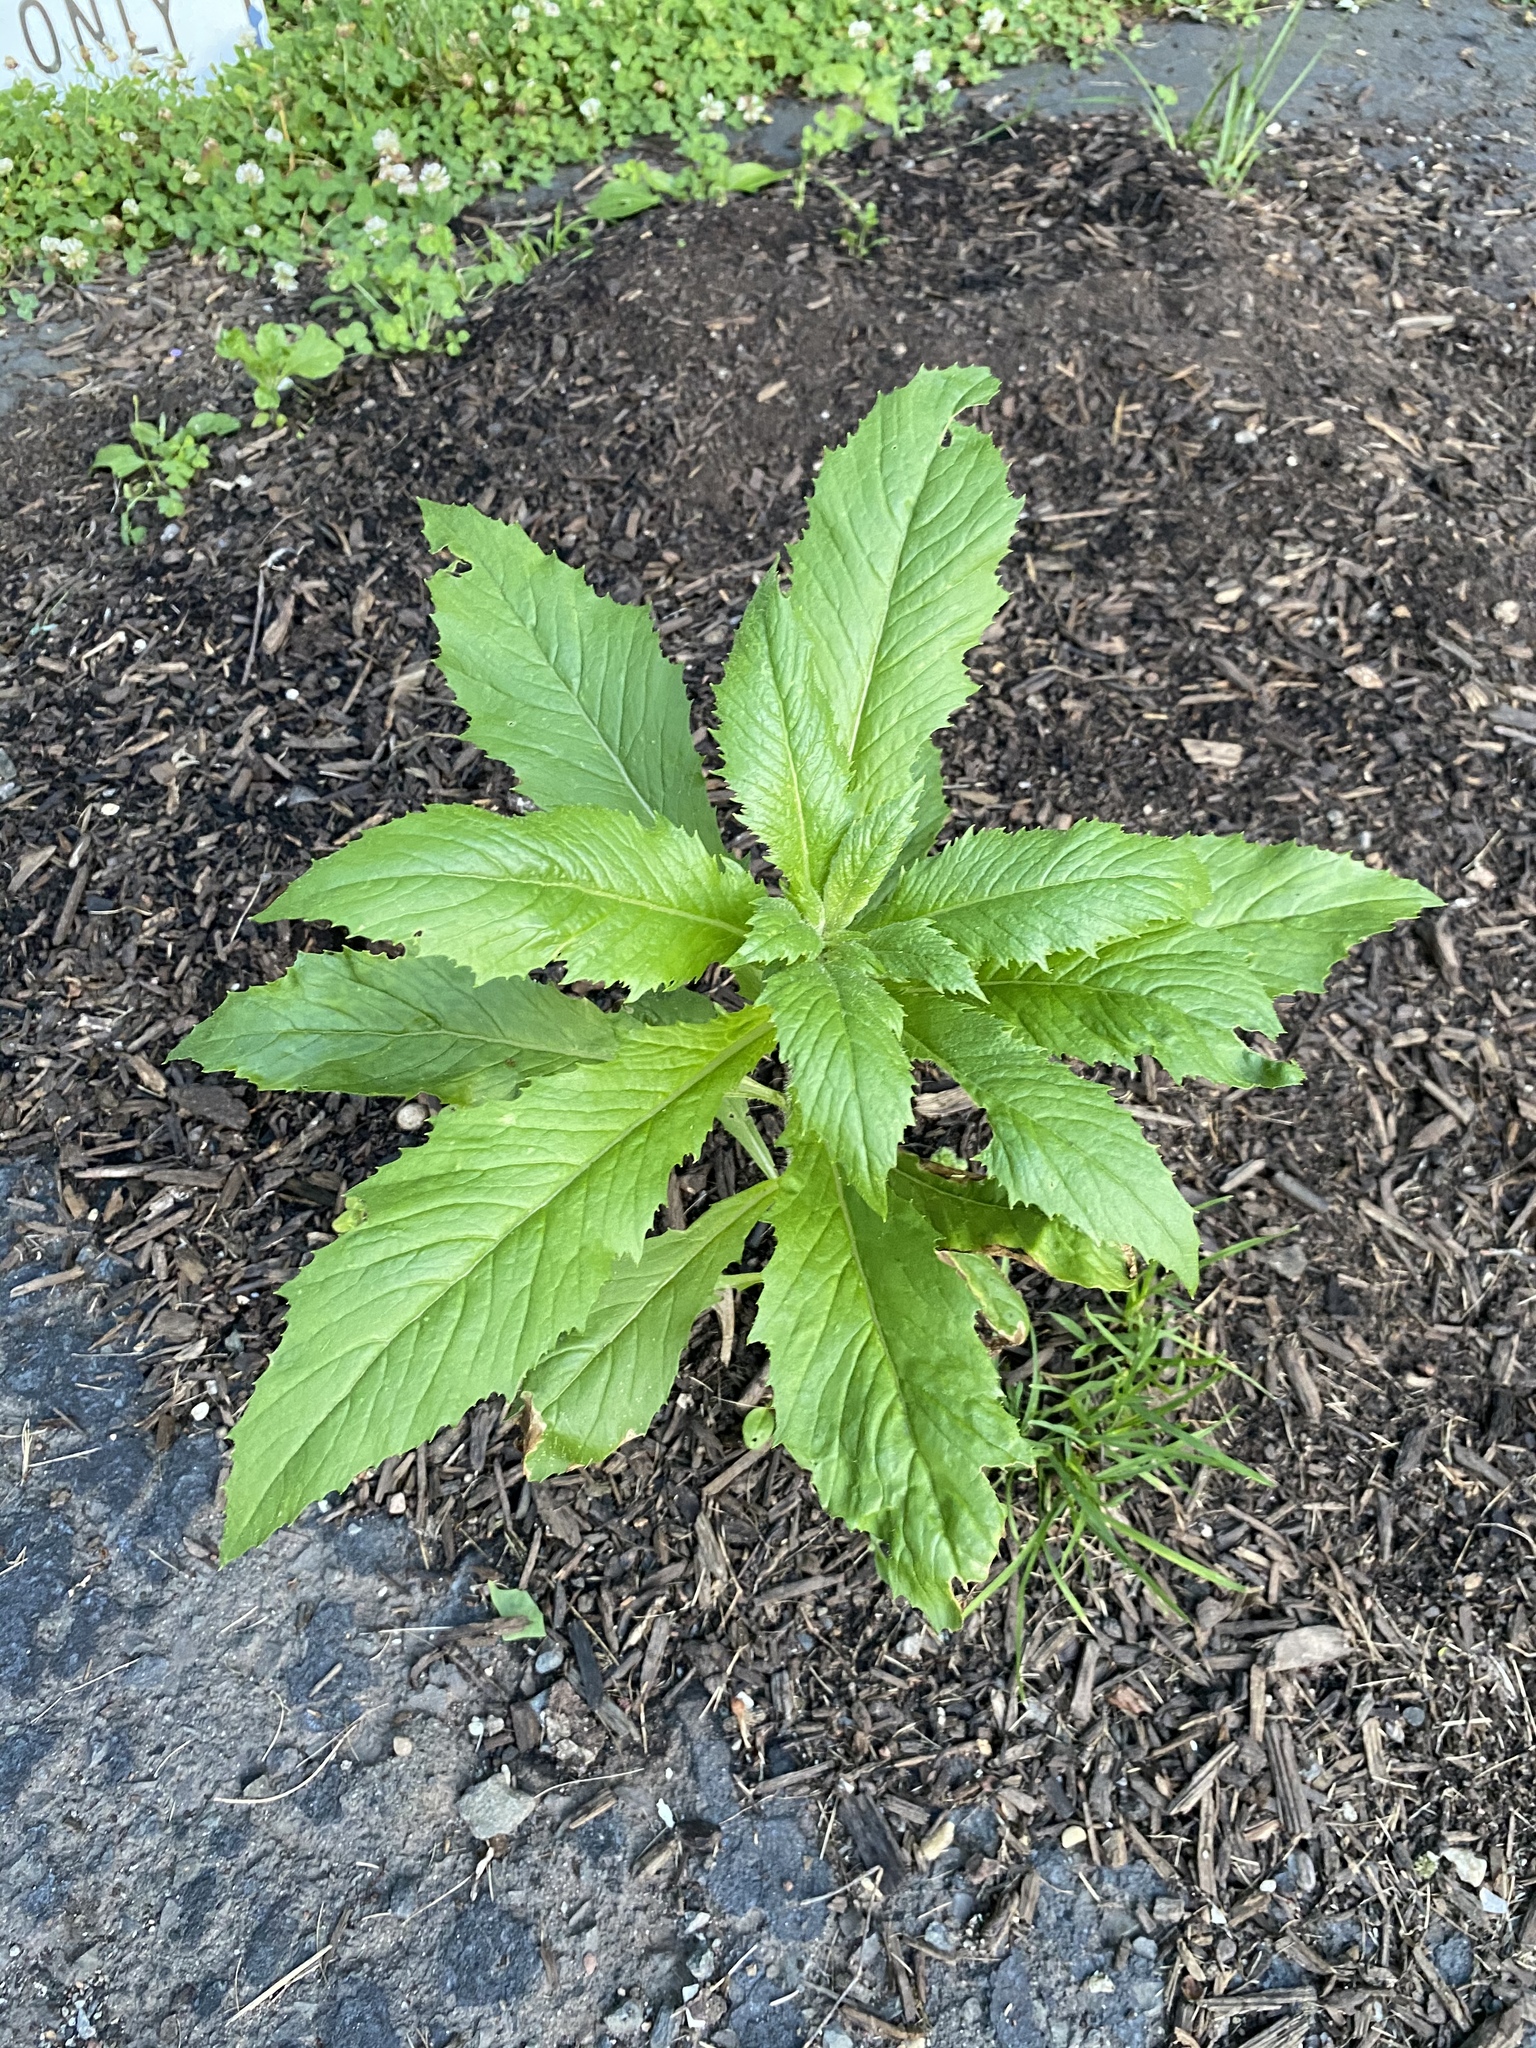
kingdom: Plantae
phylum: Tracheophyta
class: Magnoliopsida
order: Asterales
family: Asteraceae
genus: Erechtites
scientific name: Erechtites hieraciifolius
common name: American burnweed
